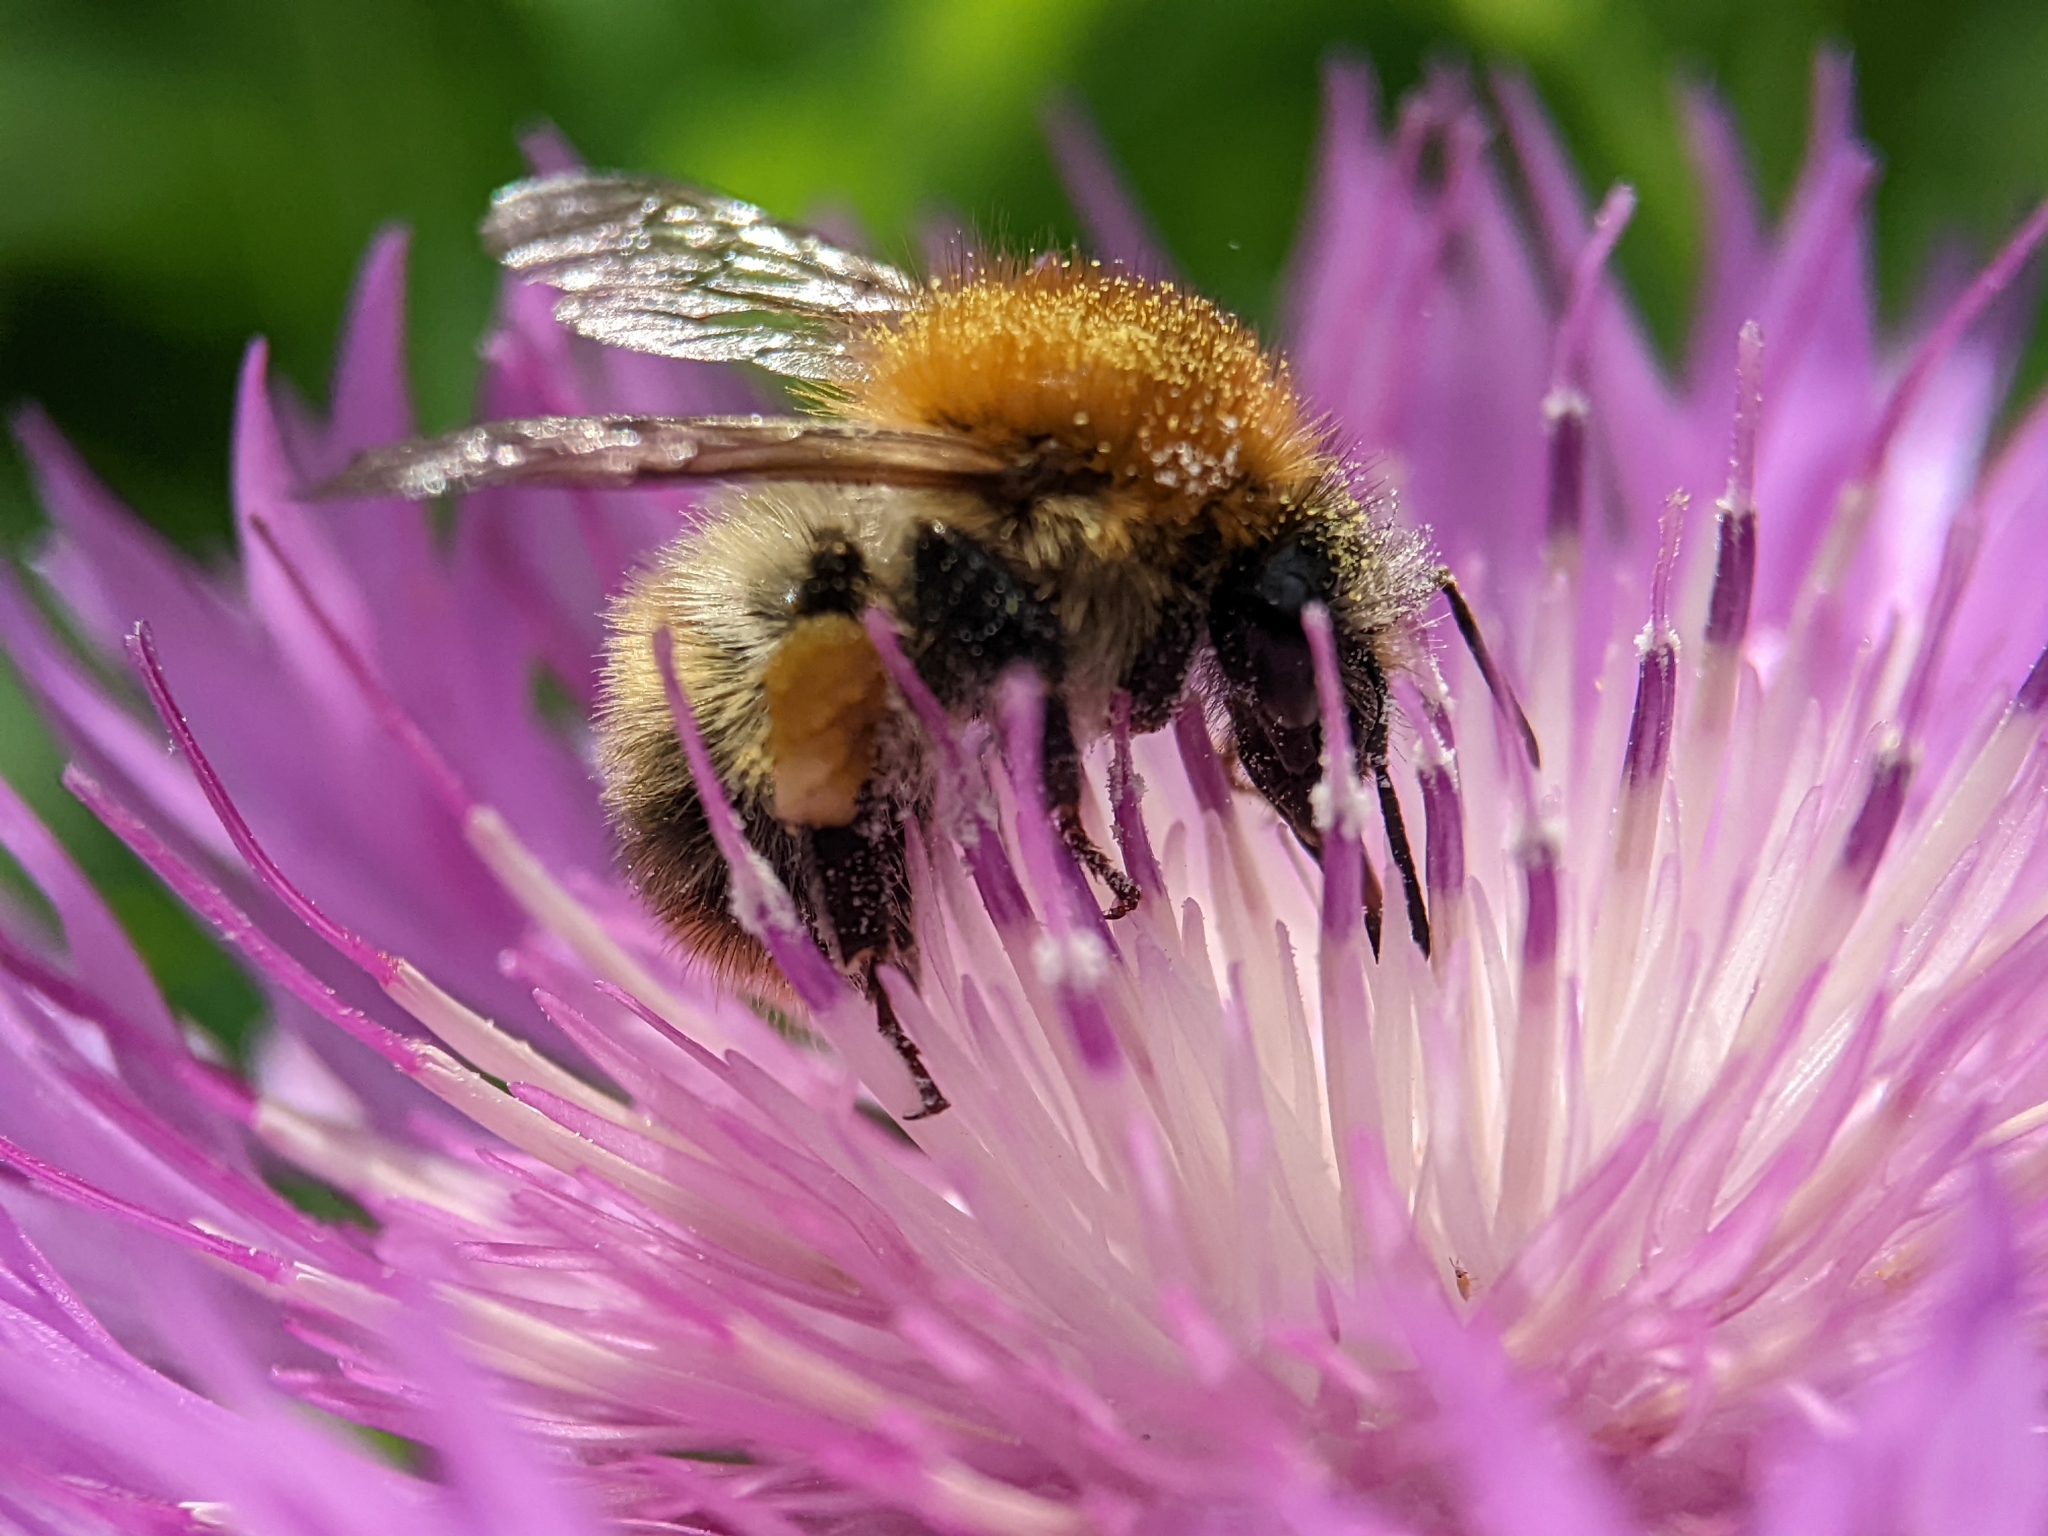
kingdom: Animalia
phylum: Arthropoda
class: Insecta
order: Hymenoptera
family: Apidae
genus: Bombus
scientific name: Bombus pascuorum
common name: Common carder bee
